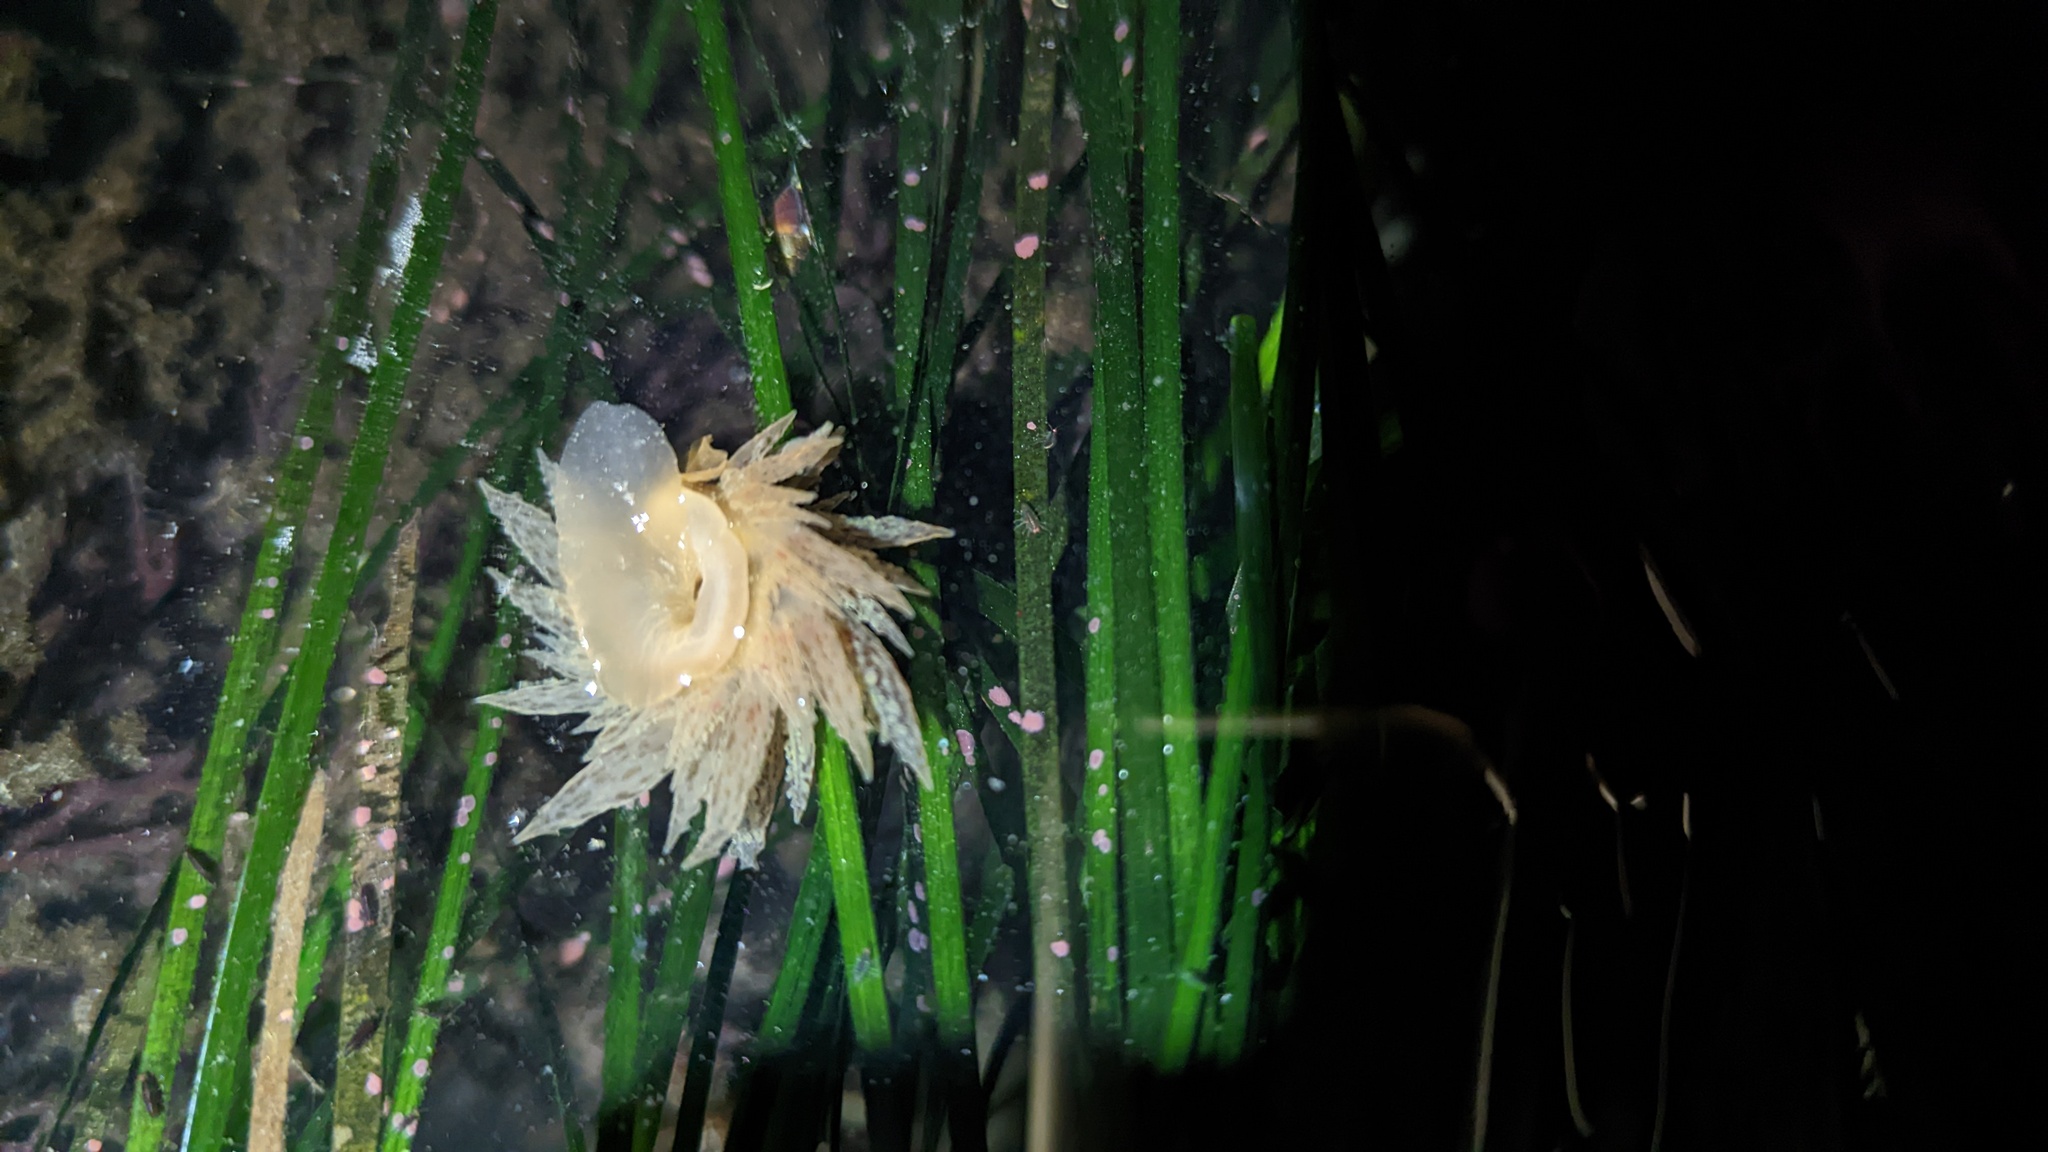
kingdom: Animalia
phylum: Mollusca
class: Gastropoda
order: Nudibranchia
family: Dironidae
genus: Dirona
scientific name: Dirona picta
